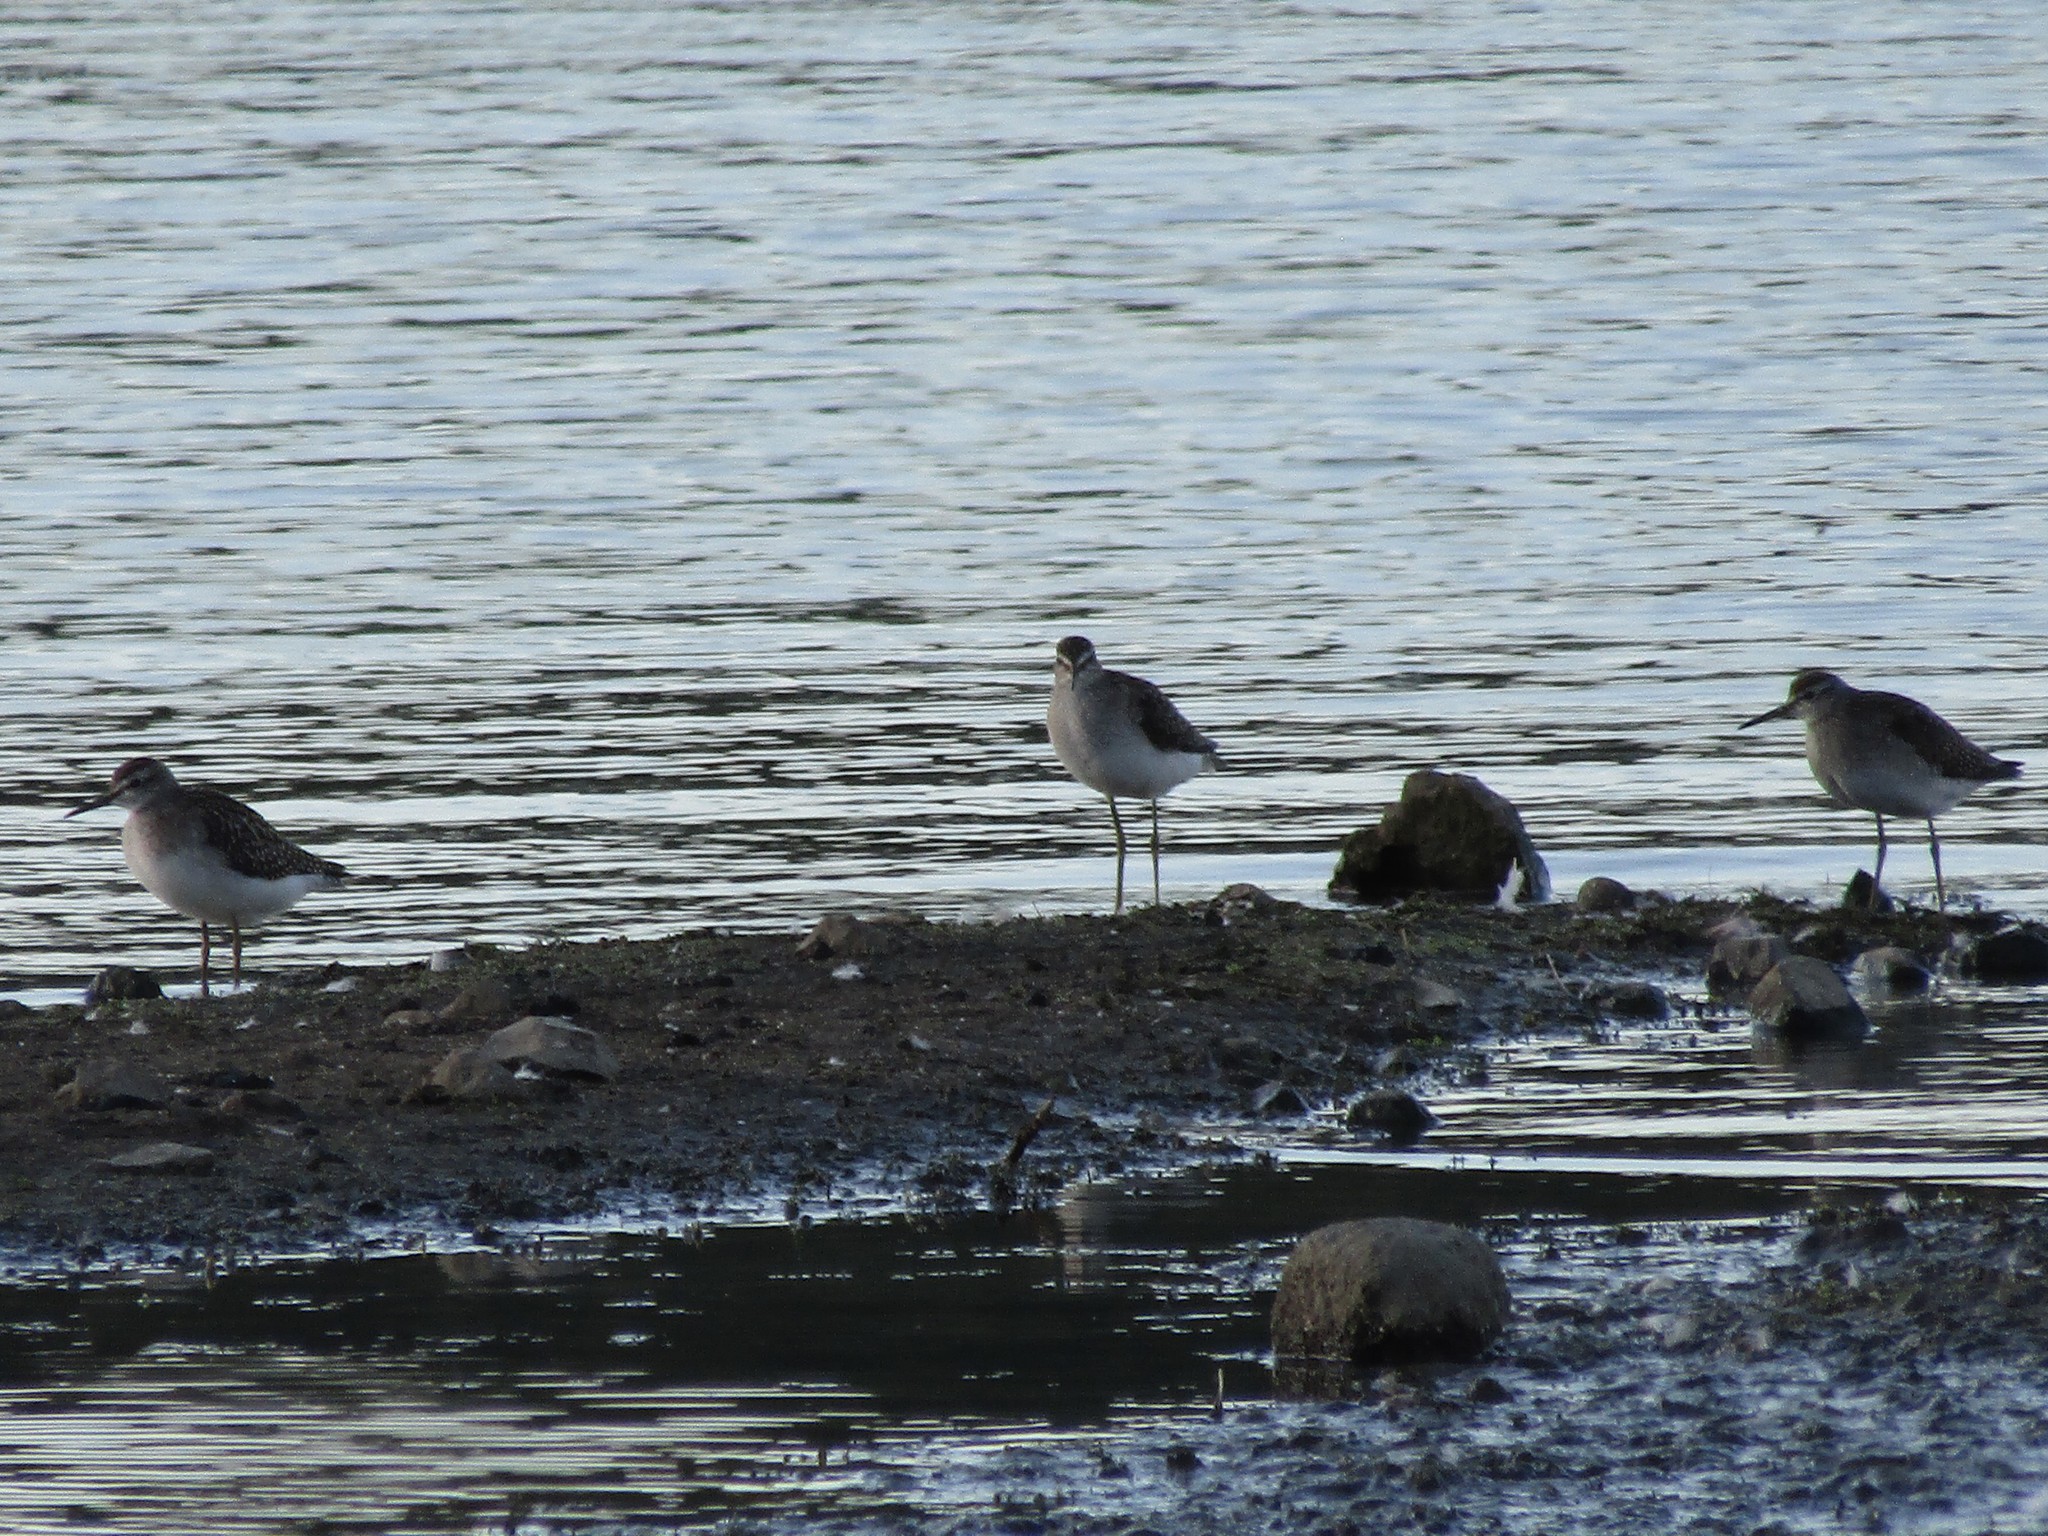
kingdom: Animalia
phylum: Chordata
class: Aves
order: Charadriiformes
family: Scolopacidae
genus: Tringa
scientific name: Tringa glareola
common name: Wood sandpiper
